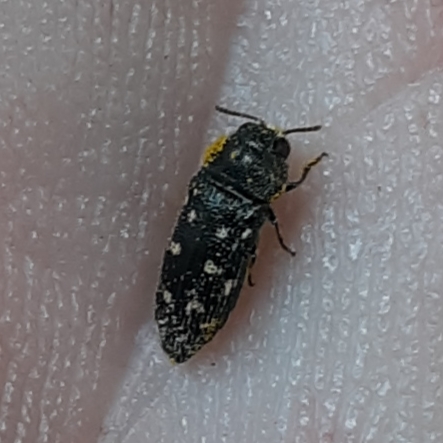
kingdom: Animalia
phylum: Arthropoda
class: Insecta
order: Coleoptera
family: Buprestidae
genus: Acmaeodera
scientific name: Acmaeodera tubulus
